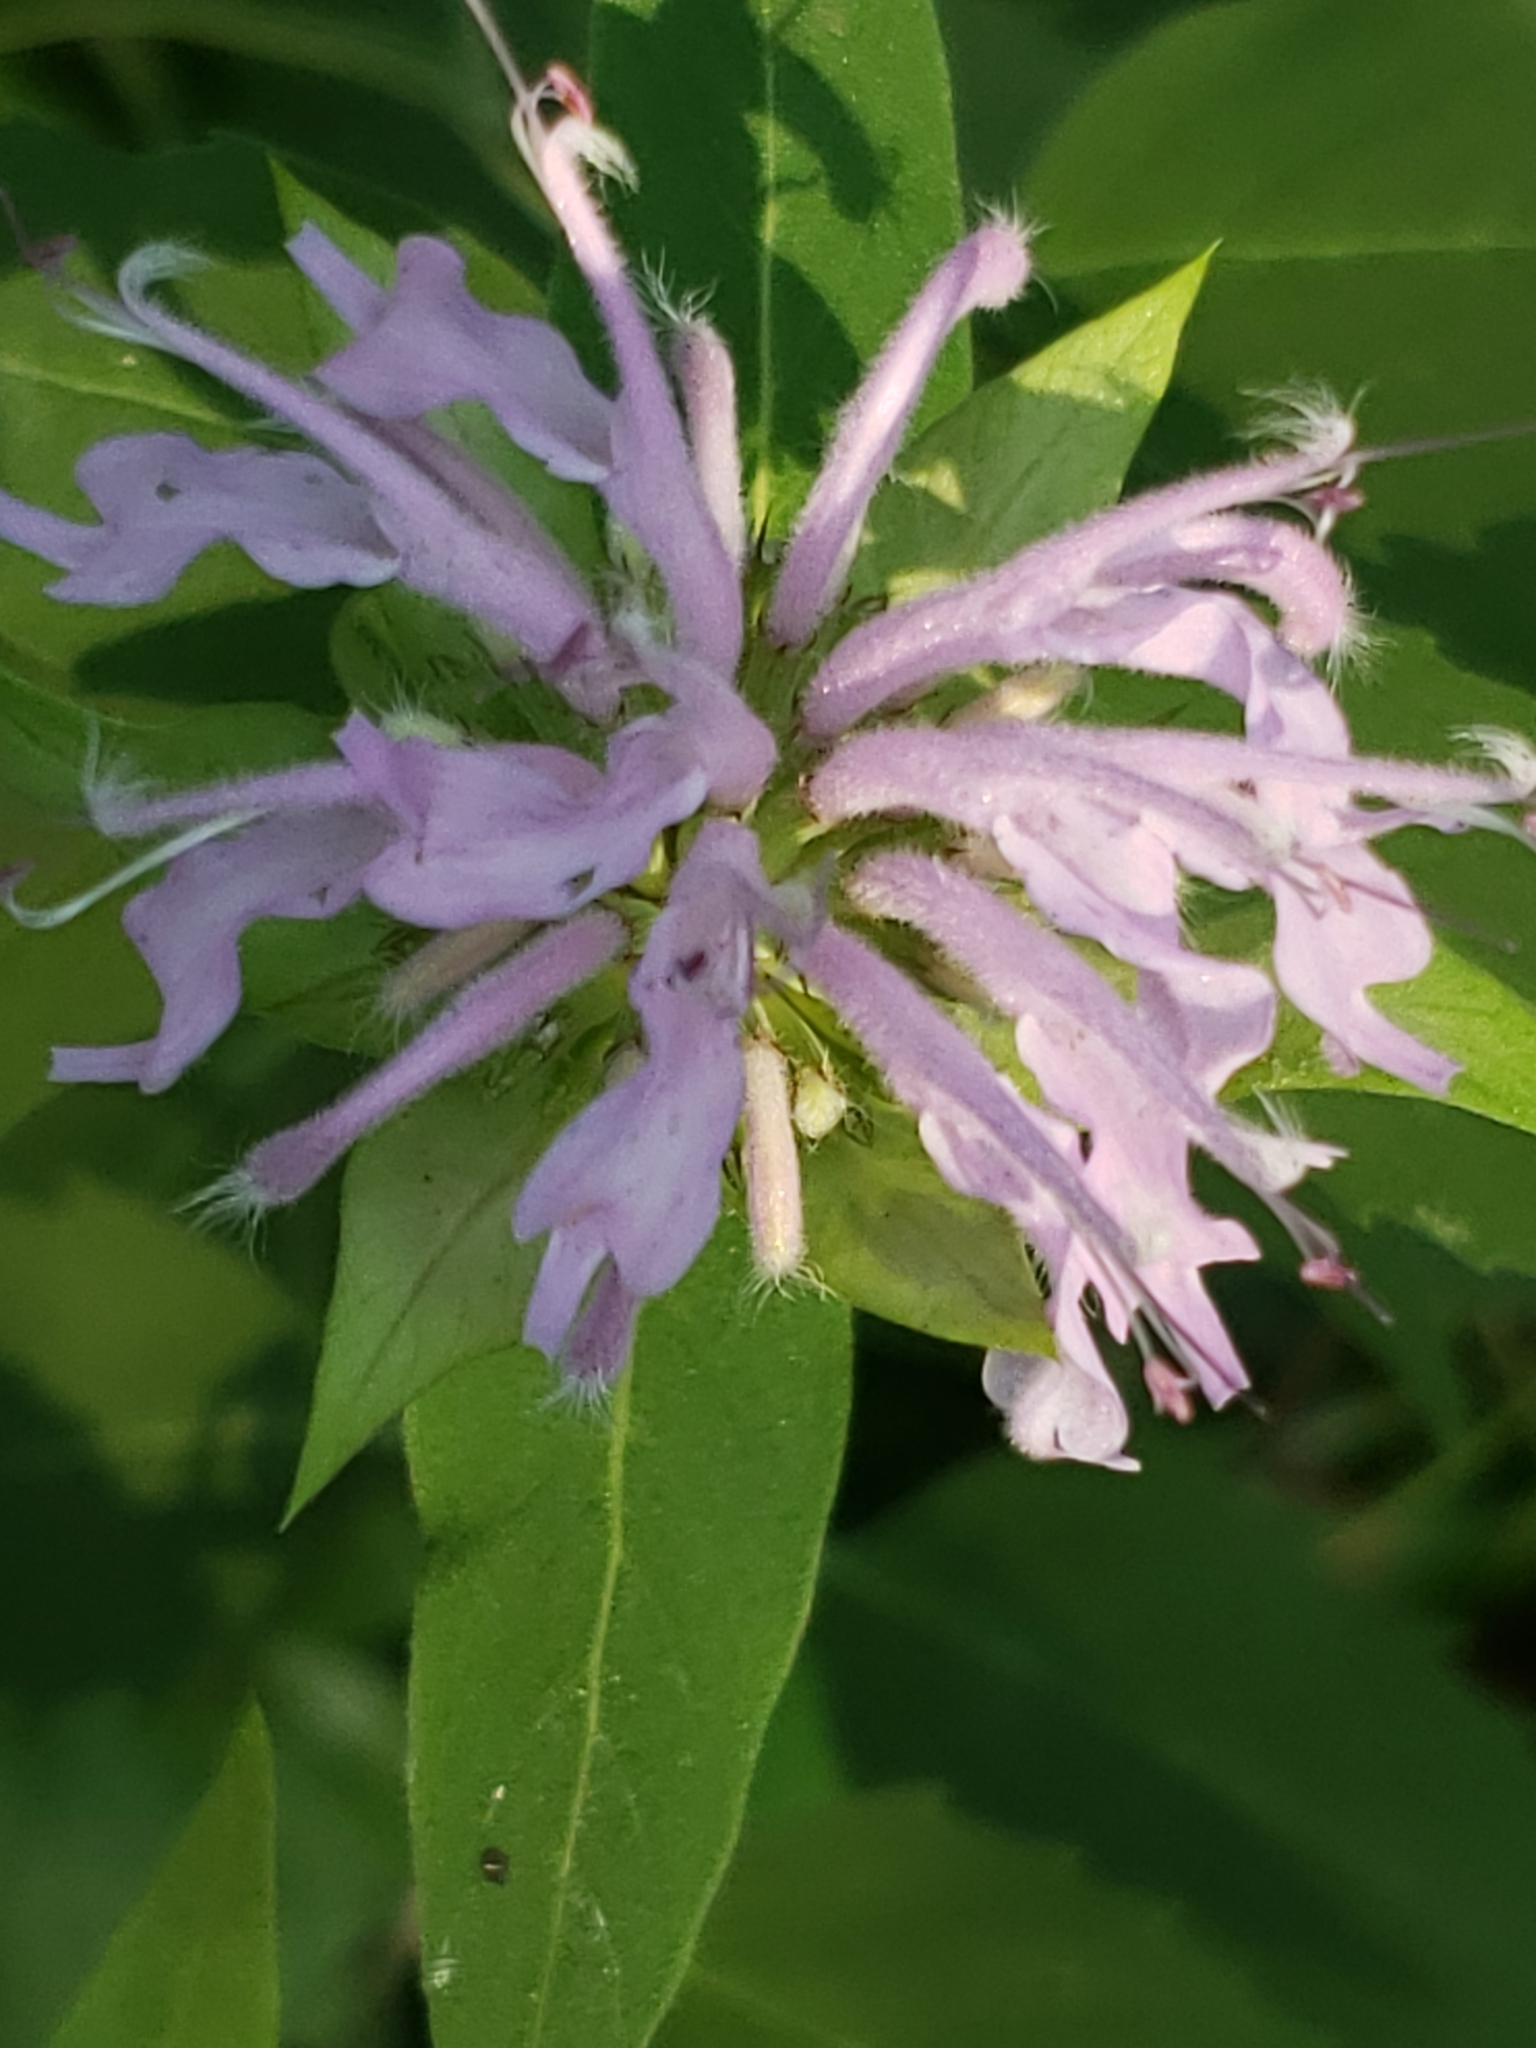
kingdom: Plantae
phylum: Tracheophyta
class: Magnoliopsida
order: Lamiales
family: Lamiaceae
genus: Monarda
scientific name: Monarda fistulosa
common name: Purple beebalm
